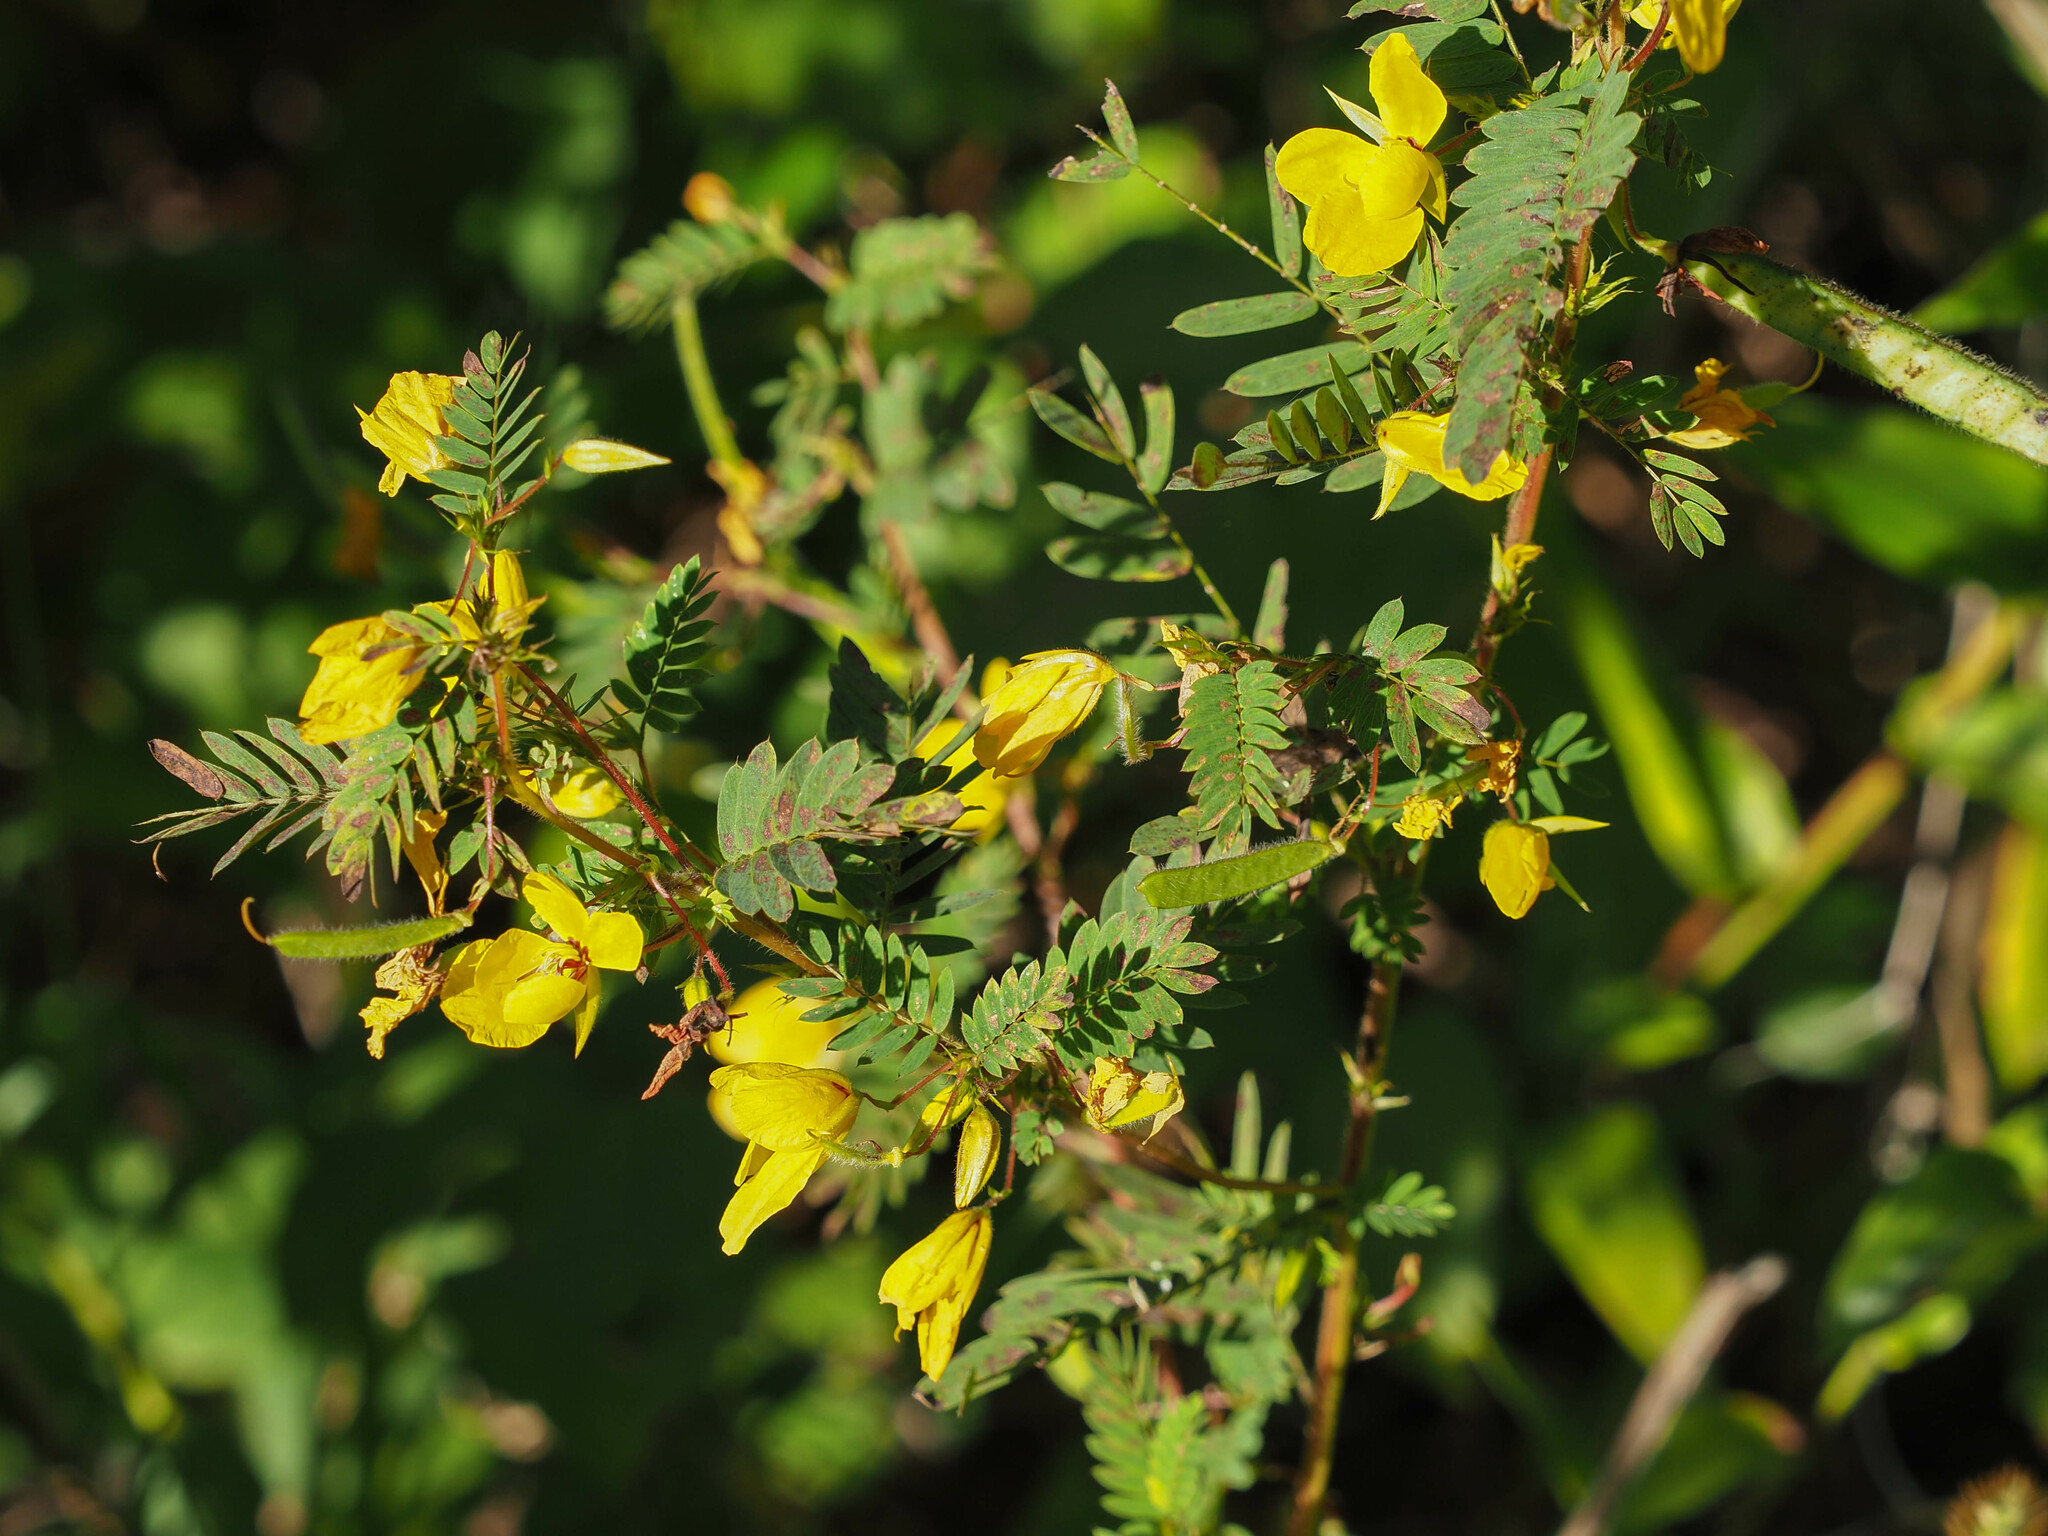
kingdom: Plantae
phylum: Tracheophyta
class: Magnoliopsida
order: Fabales
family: Fabaceae
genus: Chamaecrista
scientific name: Chamaecrista fasciculata
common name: Golden cassia
